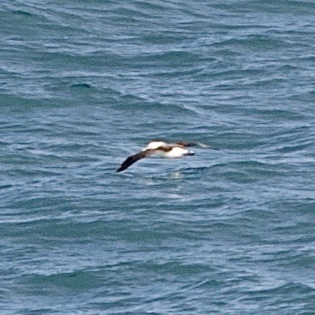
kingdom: Animalia
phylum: Chordata
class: Aves
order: Procellariiformes
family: Diomedeidae
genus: Thalassarche
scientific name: Thalassarche cauta
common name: Shy albatross
